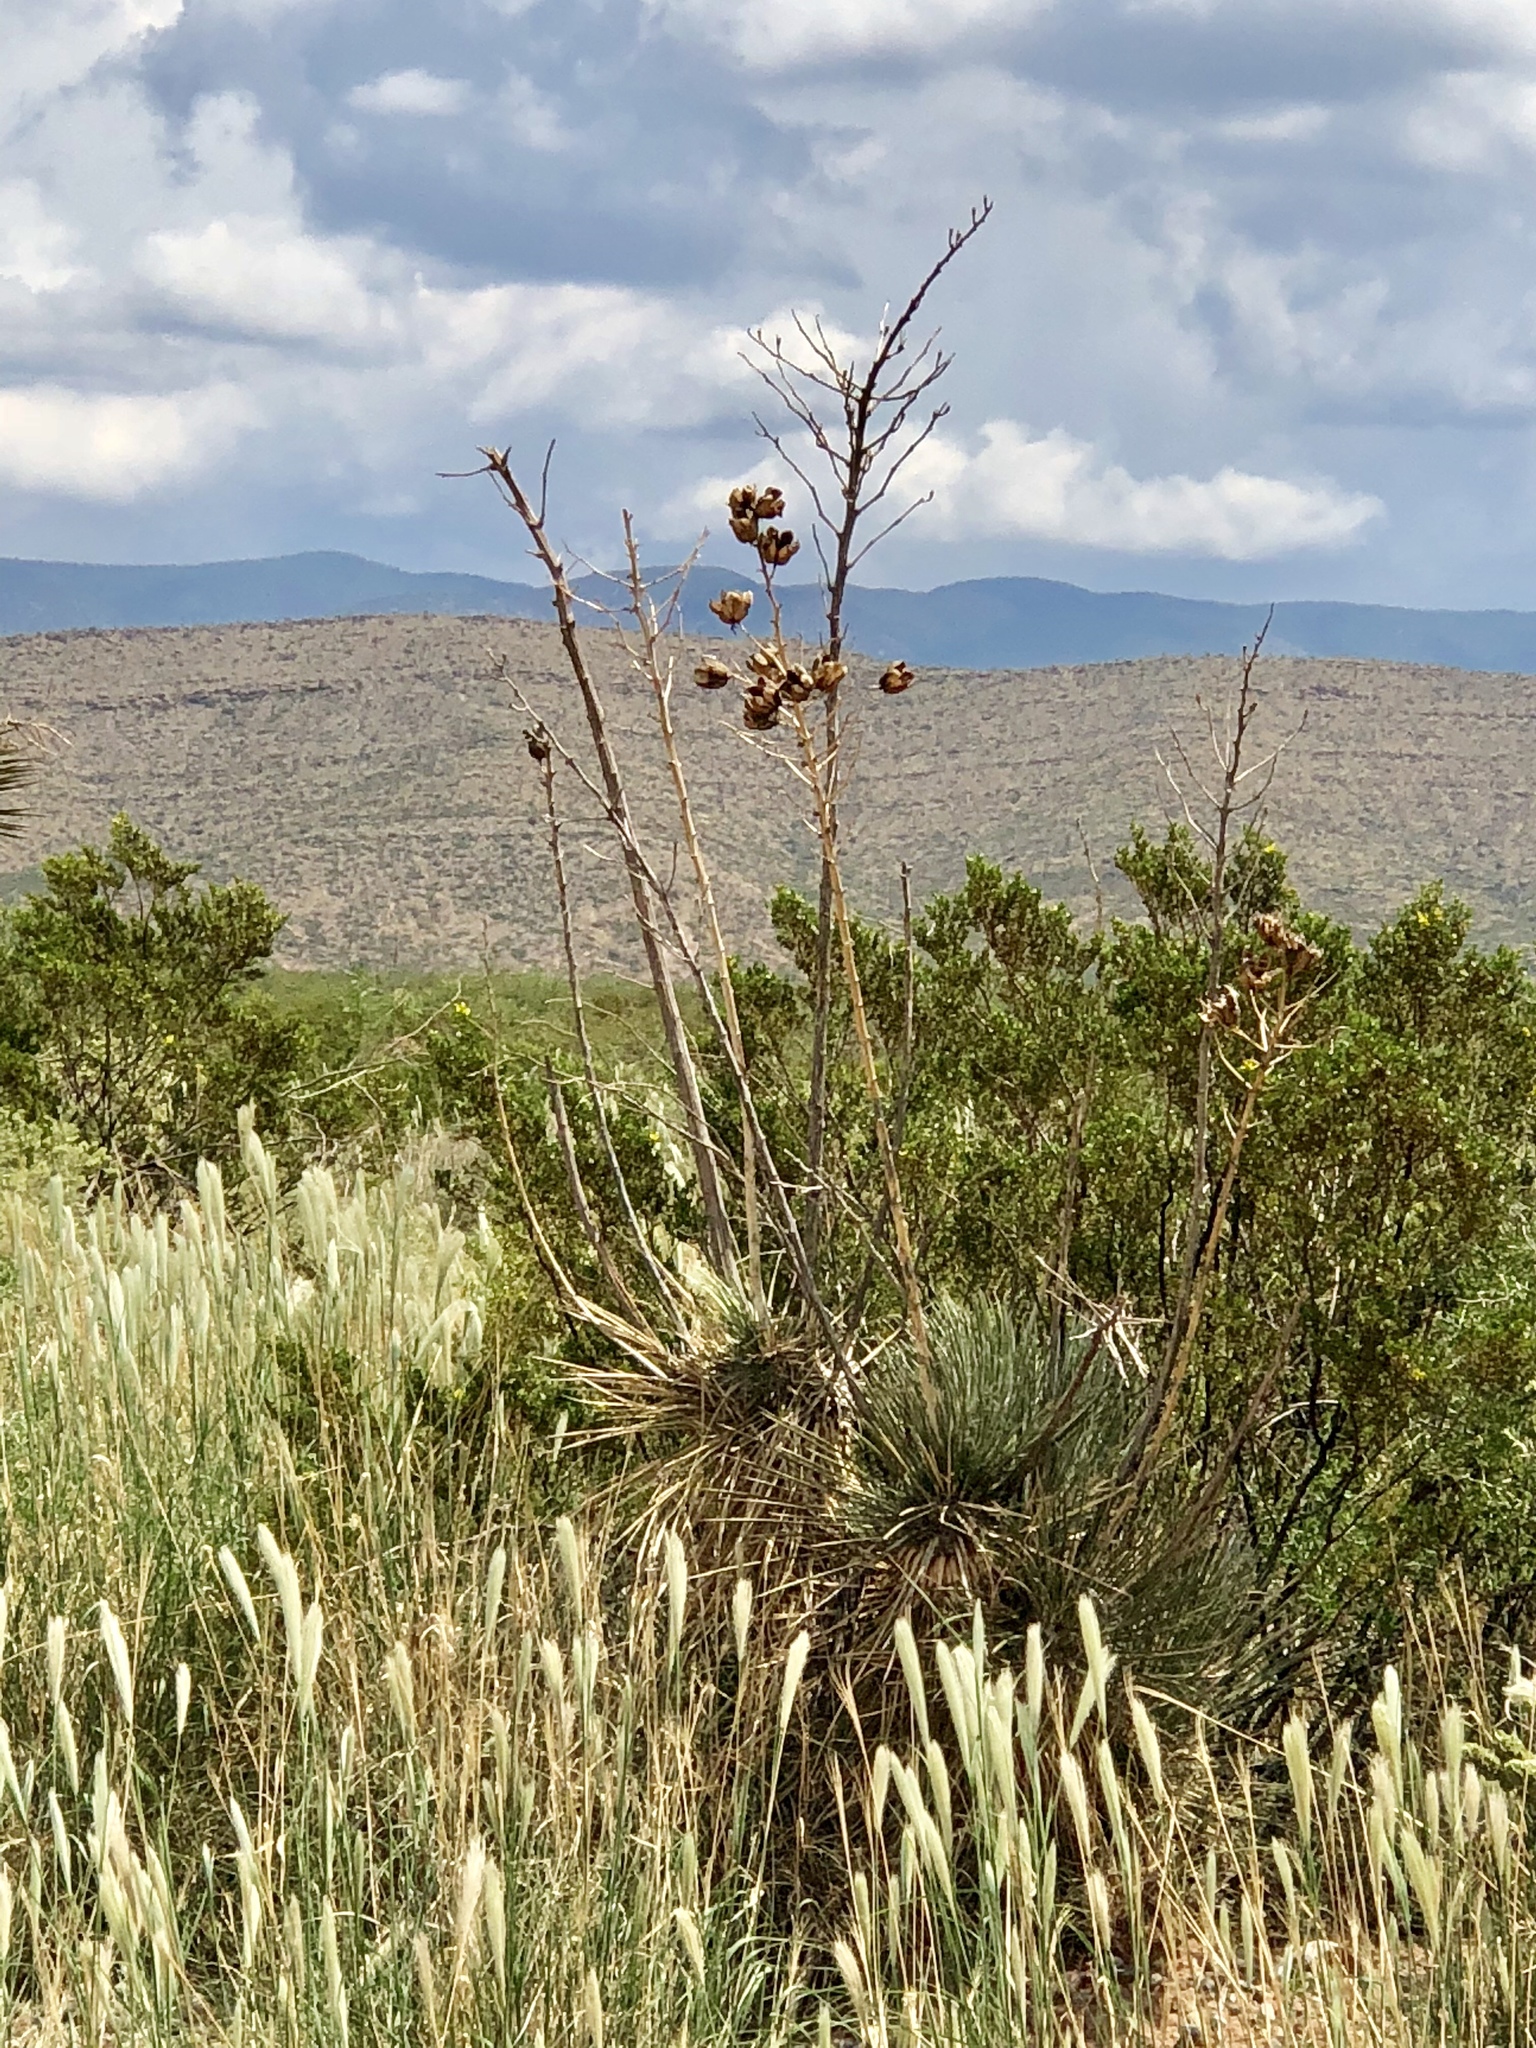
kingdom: Plantae
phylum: Tracheophyta
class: Liliopsida
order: Asparagales
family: Asparagaceae
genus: Yucca
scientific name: Yucca elata
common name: Palmella
